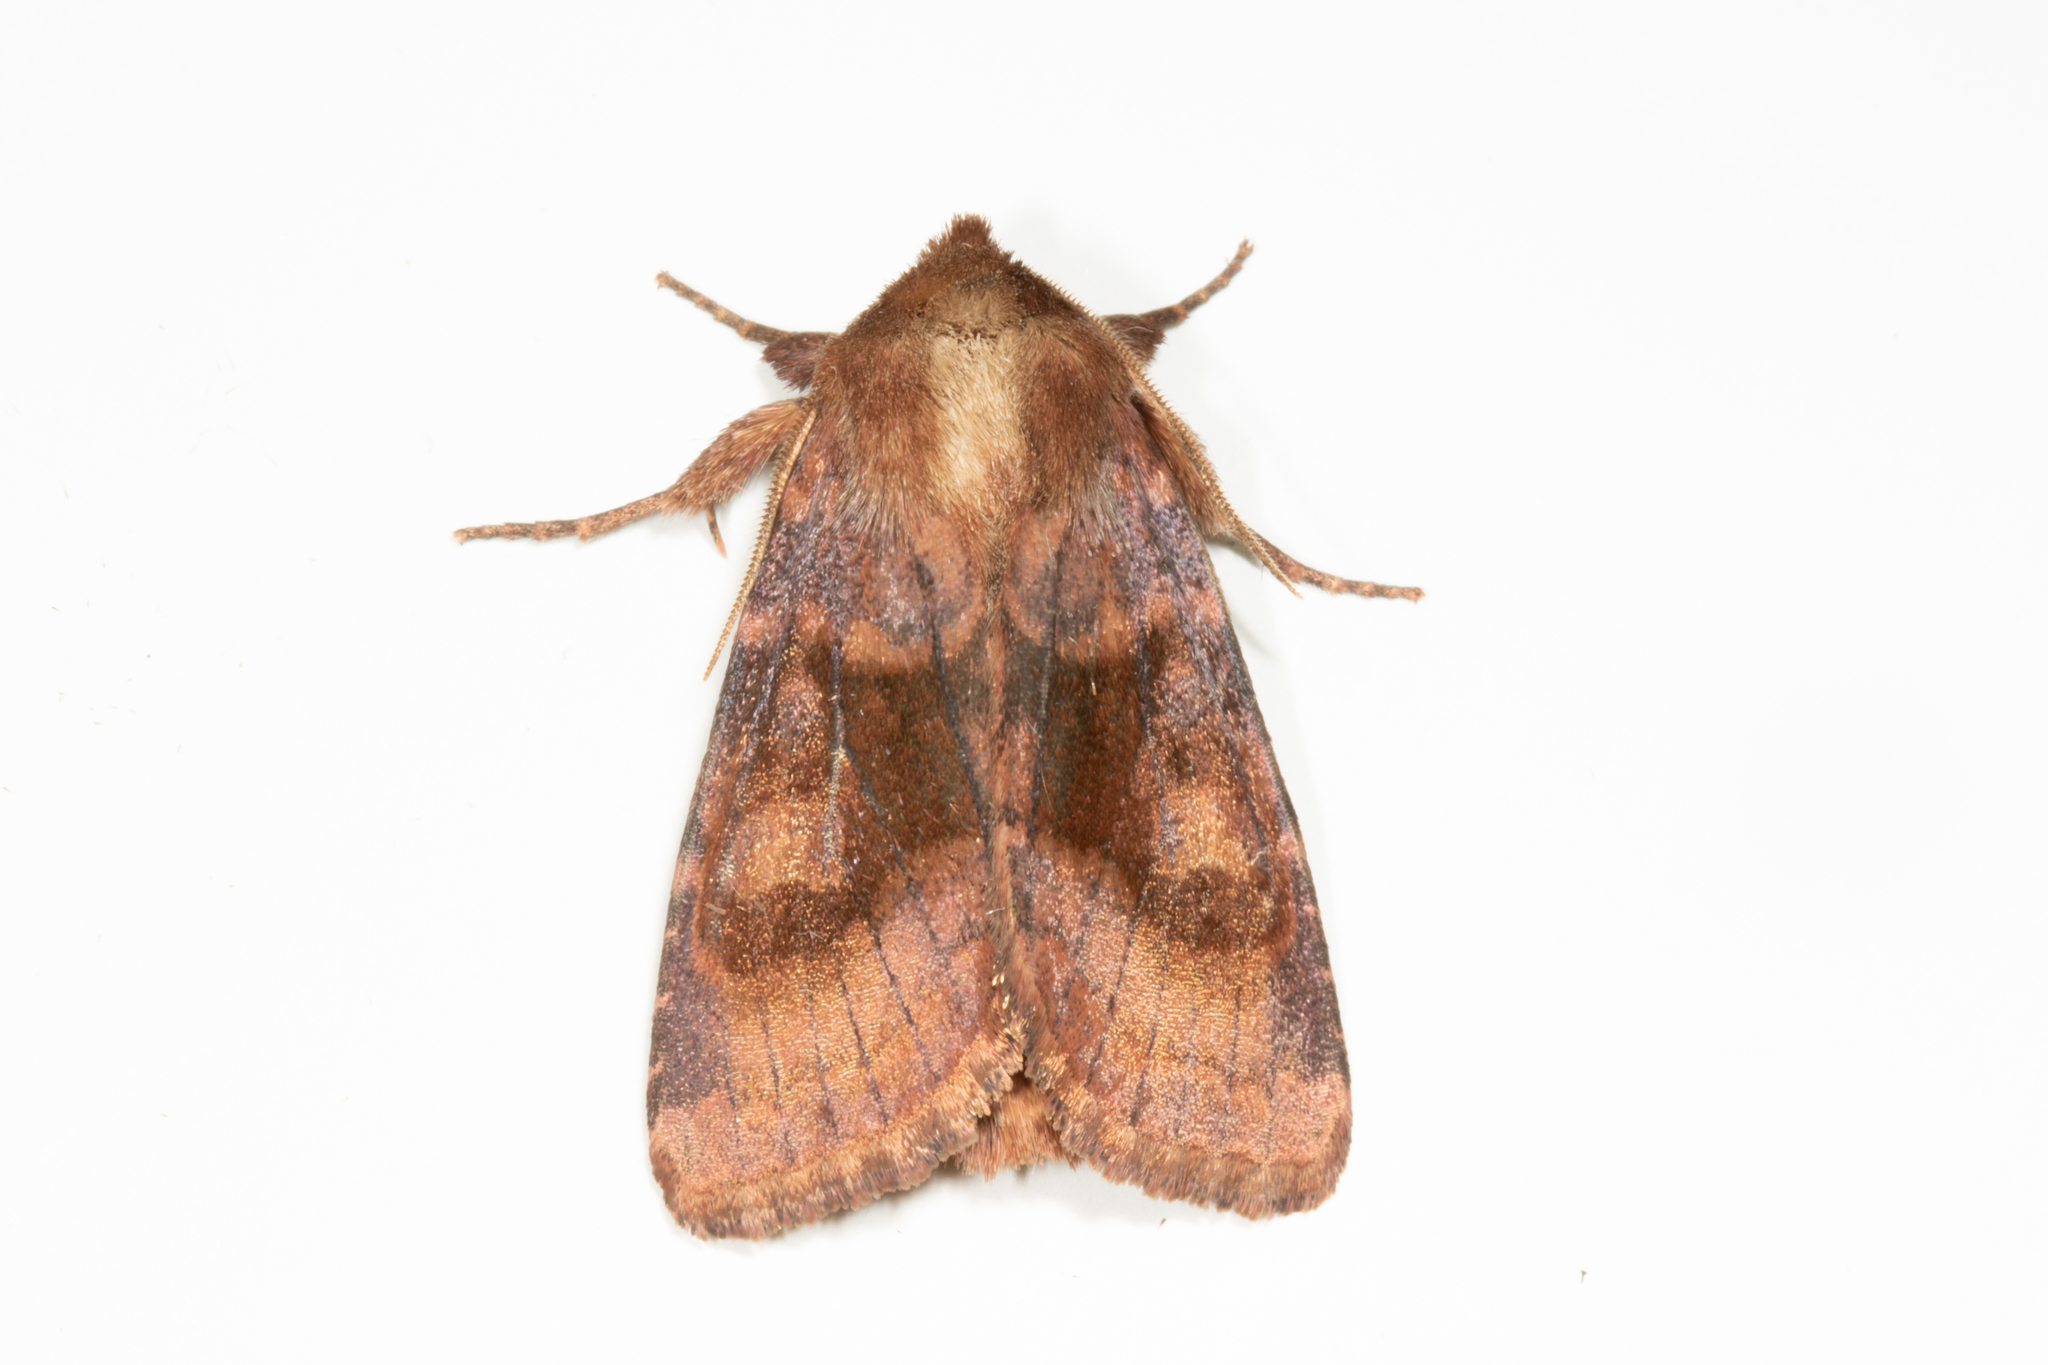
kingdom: Animalia
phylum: Arthropoda
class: Insecta
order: Lepidoptera
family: Noctuidae
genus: Nephelodes
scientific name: Nephelodes minians
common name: Bronzed cutworm
